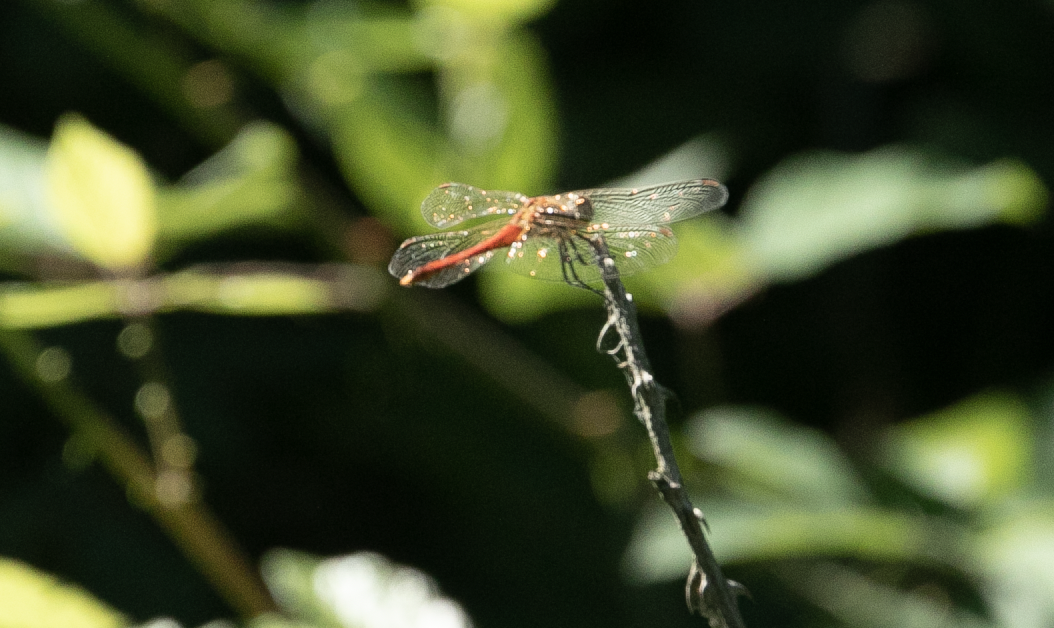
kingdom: Animalia
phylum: Arthropoda
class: Insecta
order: Odonata
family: Libellulidae
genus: Sympetrum
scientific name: Sympetrum depressiusculum
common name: Spotted darter
